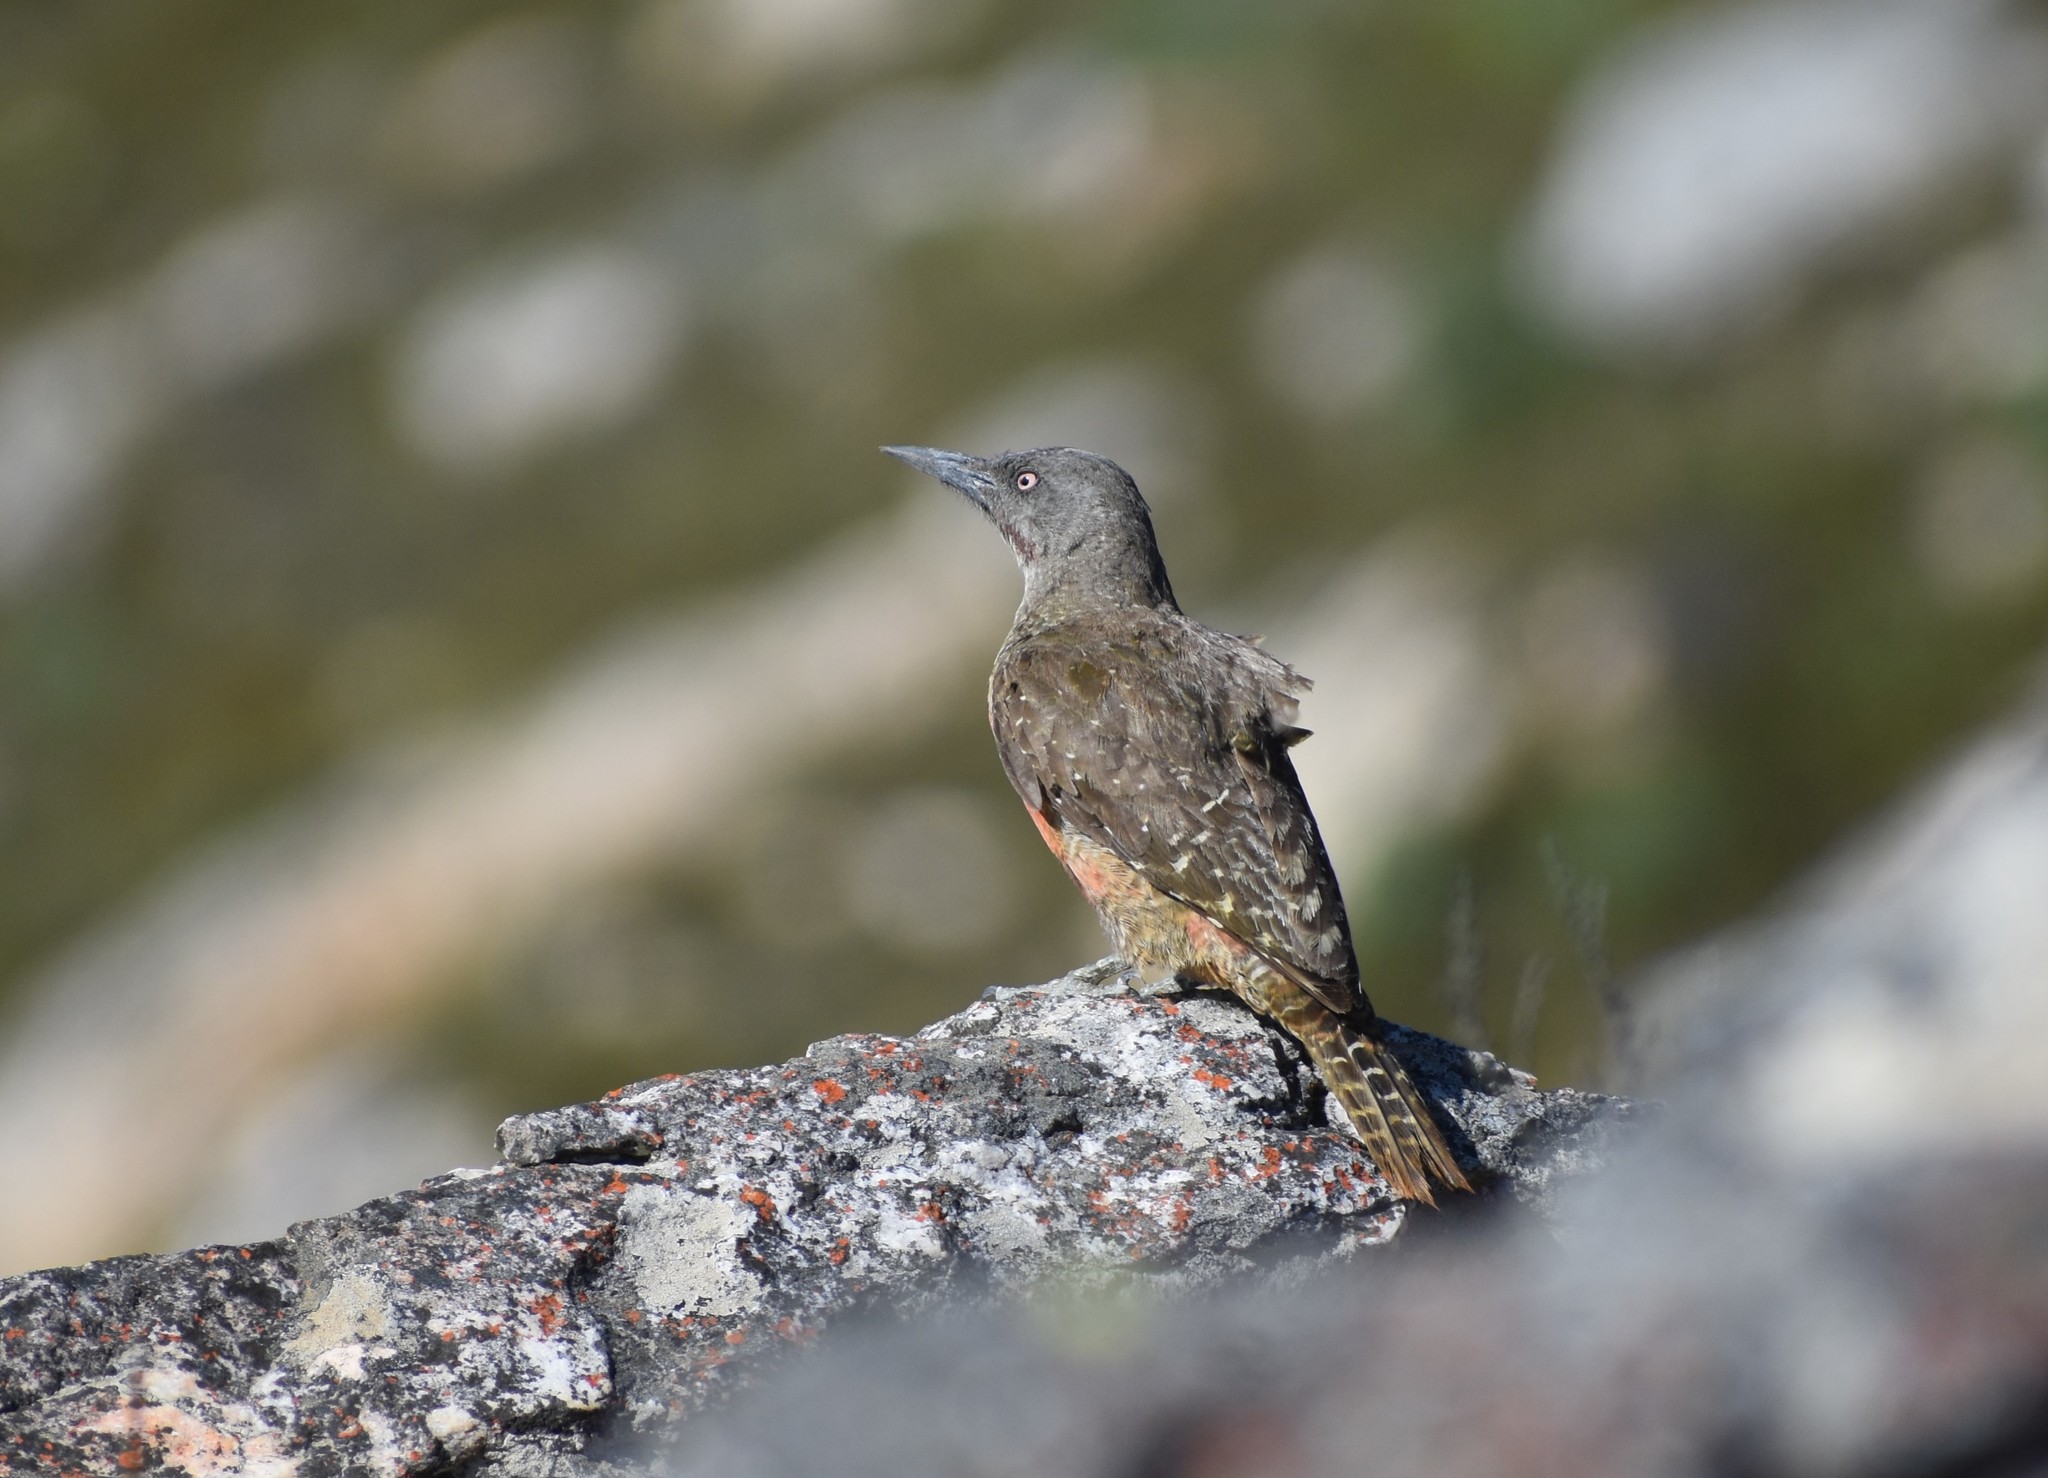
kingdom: Animalia
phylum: Chordata
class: Aves
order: Piciformes
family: Picidae
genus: Geocolaptes
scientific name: Geocolaptes olivaceus
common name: Ground woodpecker
